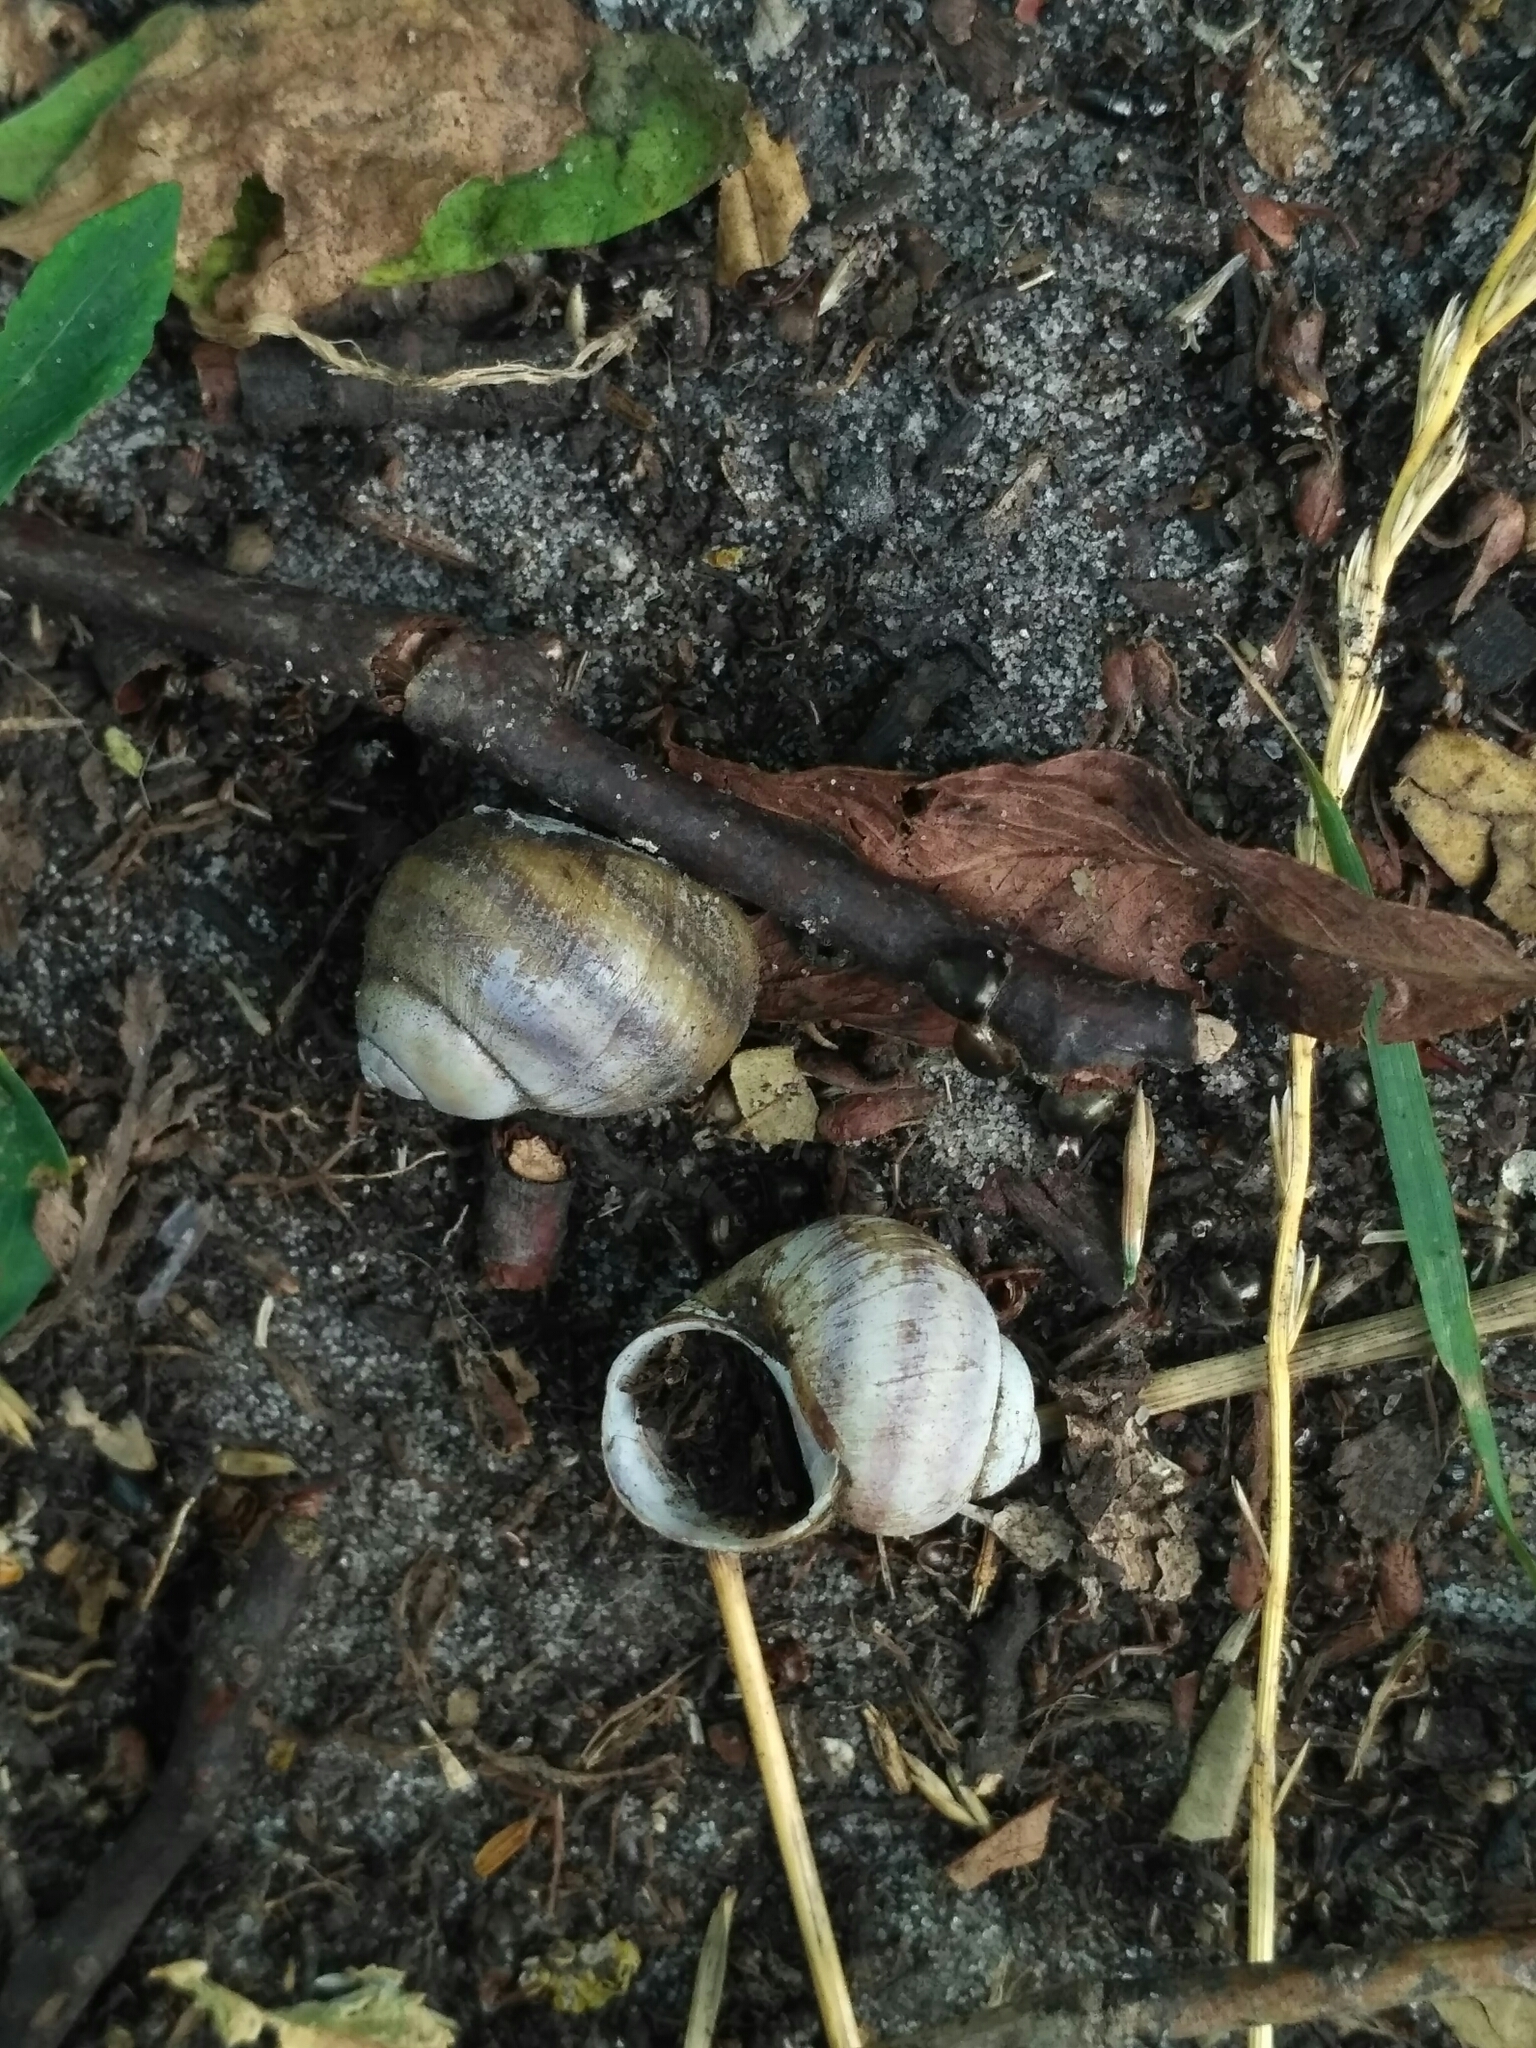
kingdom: Animalia
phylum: Mollusca
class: Gastropoda
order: Architaenioglossa
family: Viviparidae
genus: Viviparus
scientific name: Viviparus viviparus
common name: River snail
